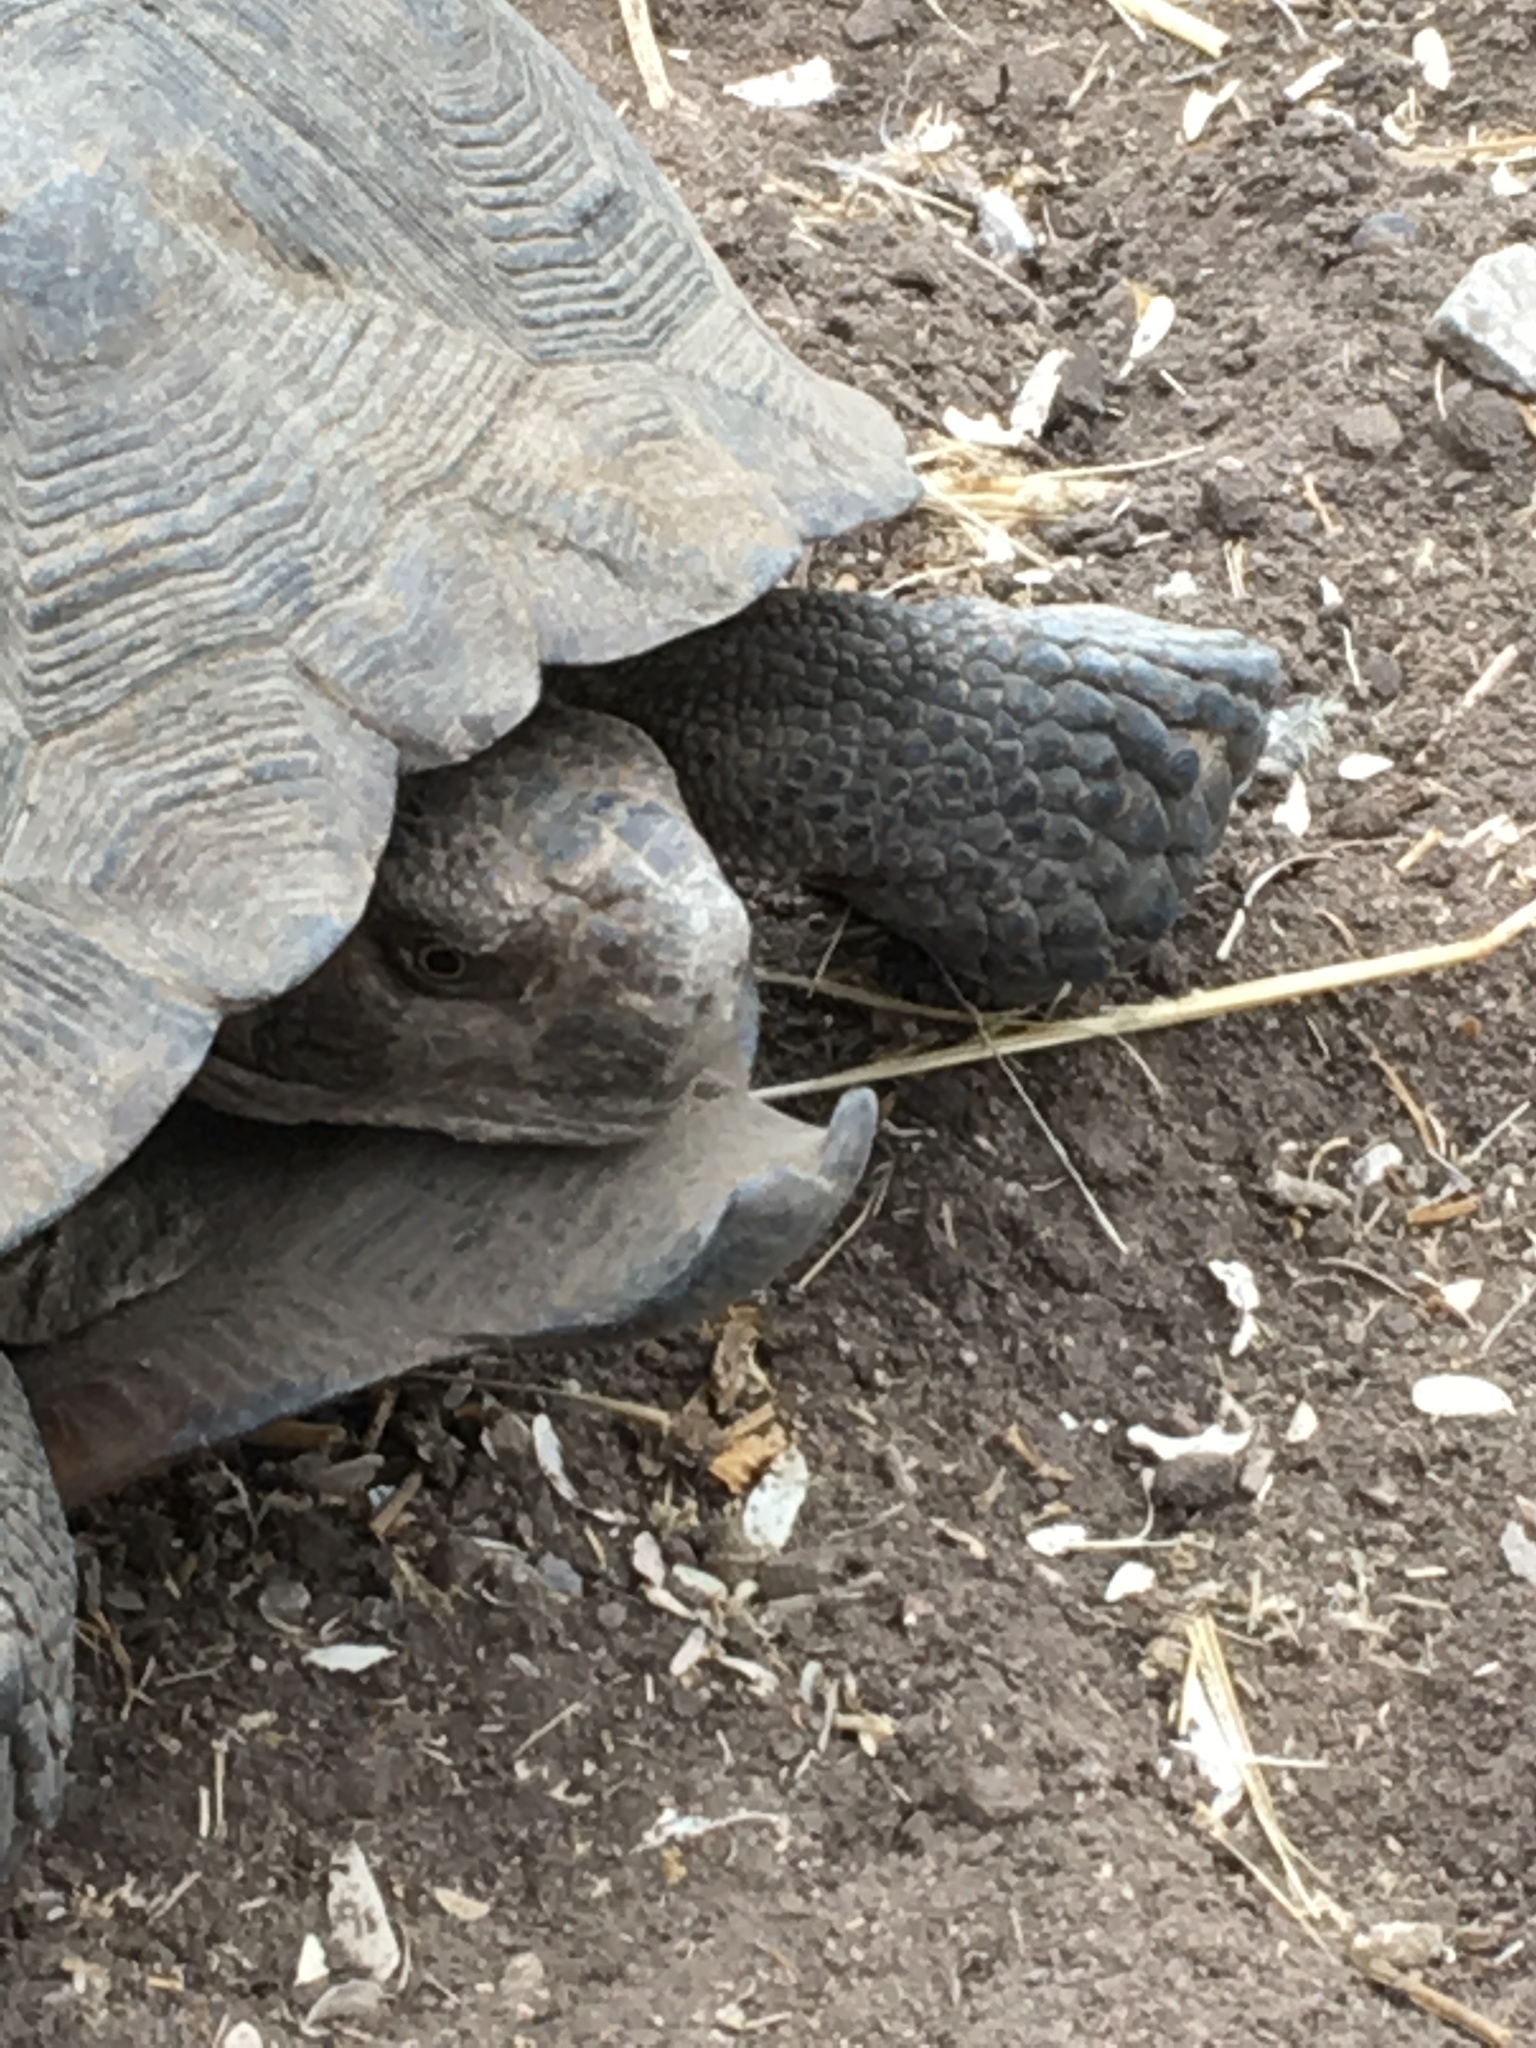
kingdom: Animalia
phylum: Chordata
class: Testudines
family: Testudinidae
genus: Gopherus
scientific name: Gopherus morafkai
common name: Sonoran desert tortoise
